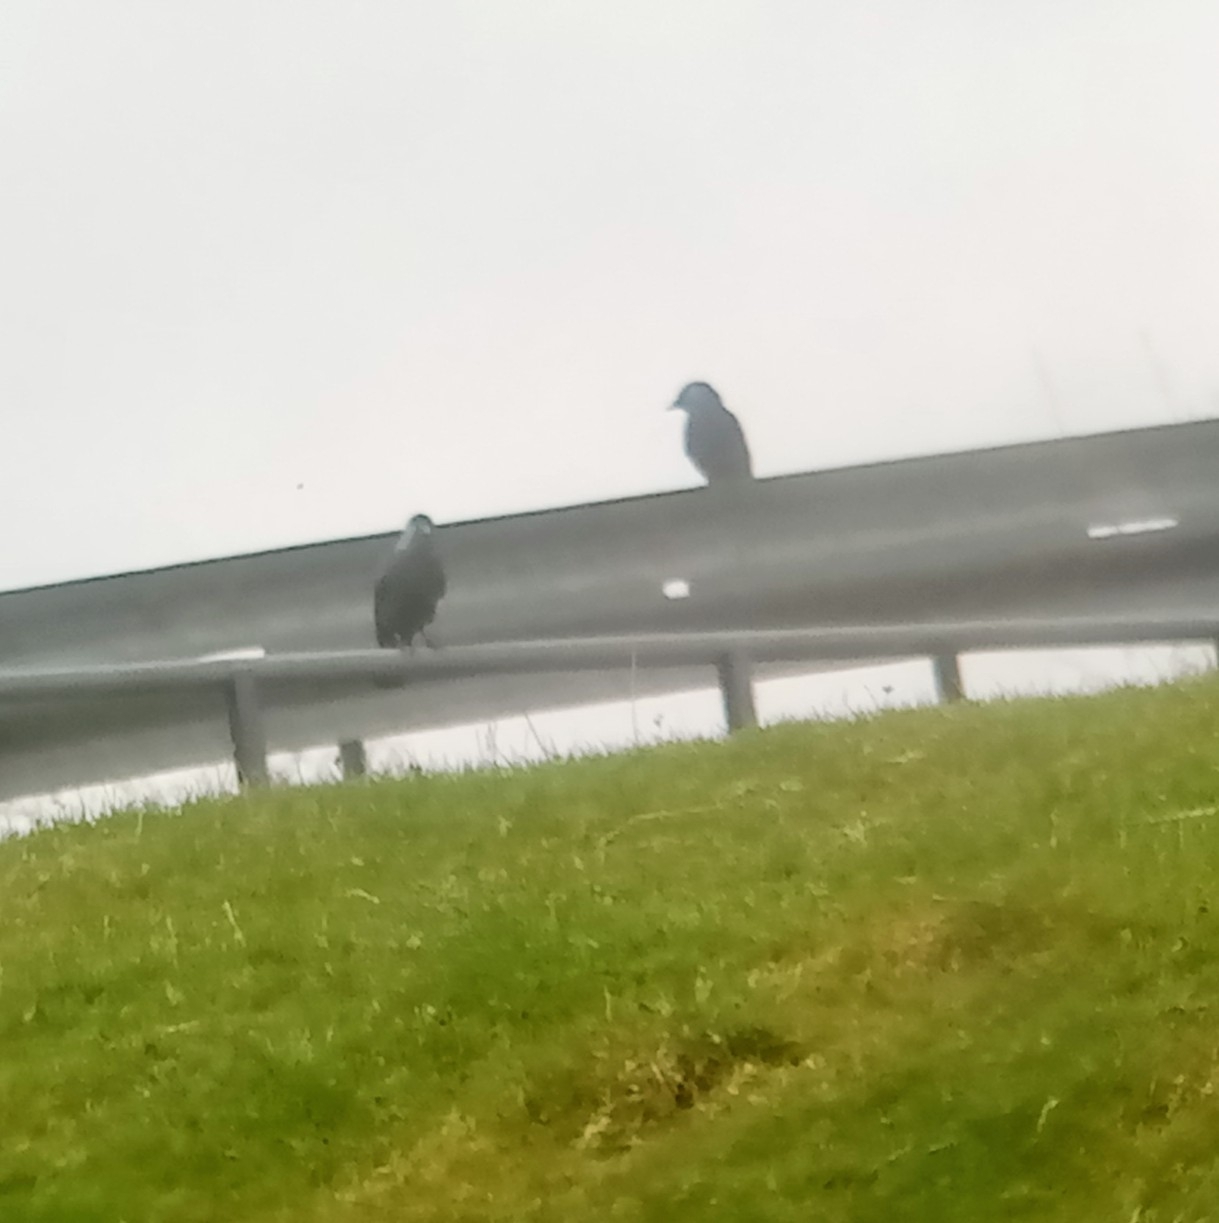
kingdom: Animalia
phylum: Chordata
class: Aves
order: Passeriformes
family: Corvidae
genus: Coloeus
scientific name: Coloeus monedula
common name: Western jackdaw
